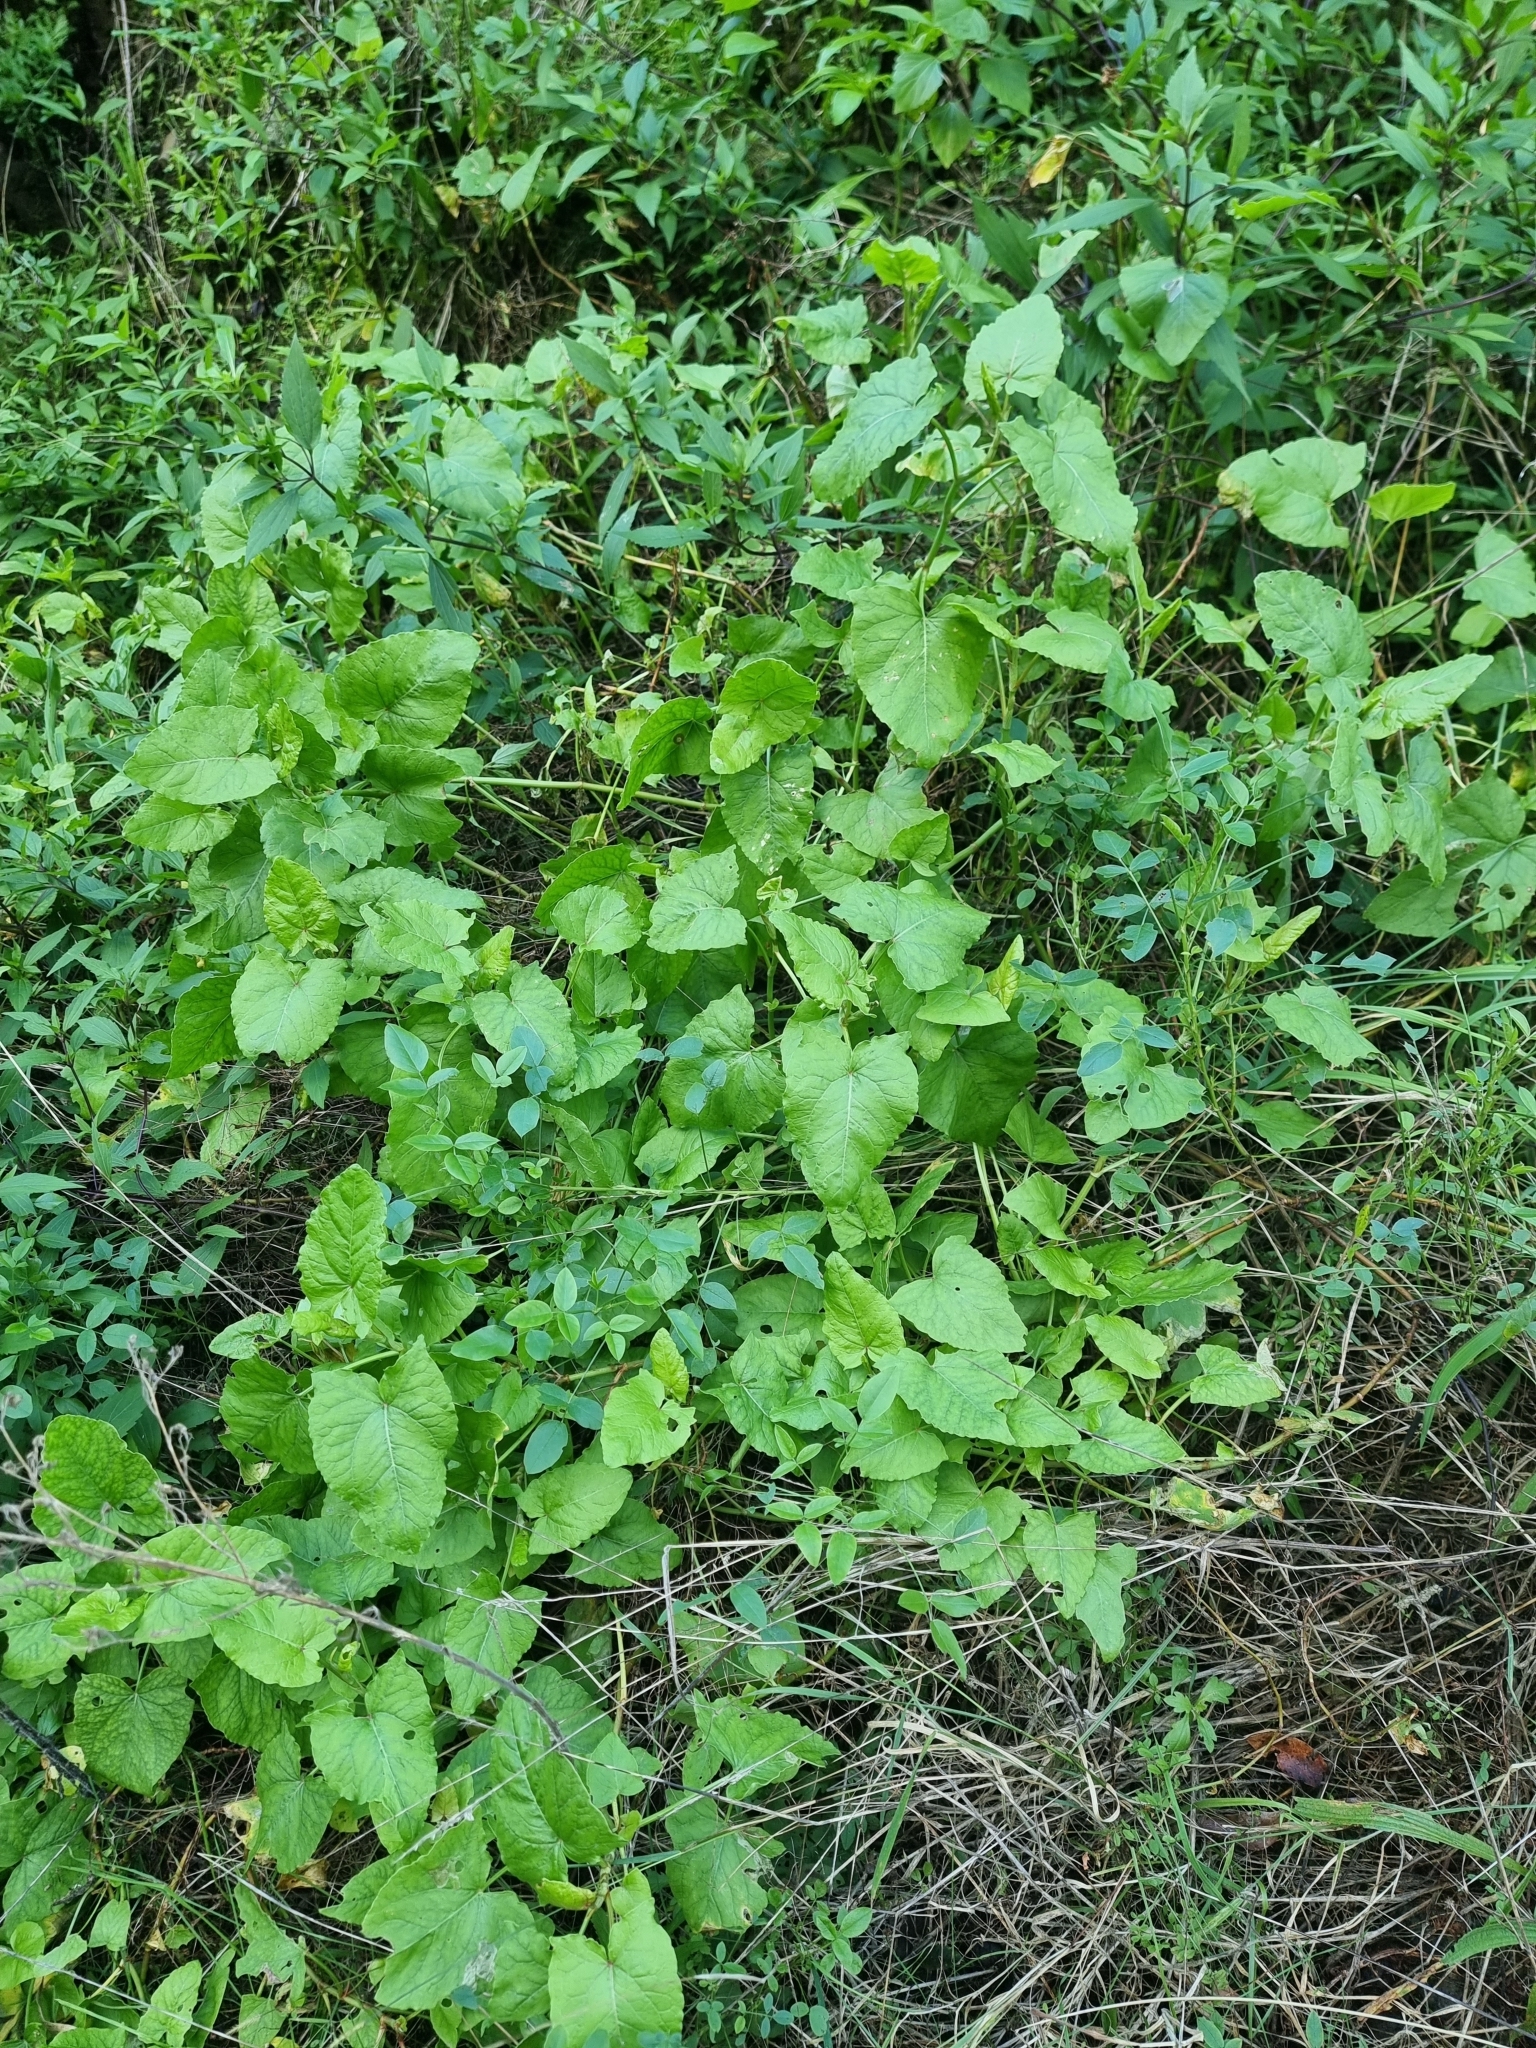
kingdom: Plantae
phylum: Tracheophyta
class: Magnoliopsida
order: Caryophyllales
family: Polygonaceae
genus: Rumex
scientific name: Rumex maderensis
